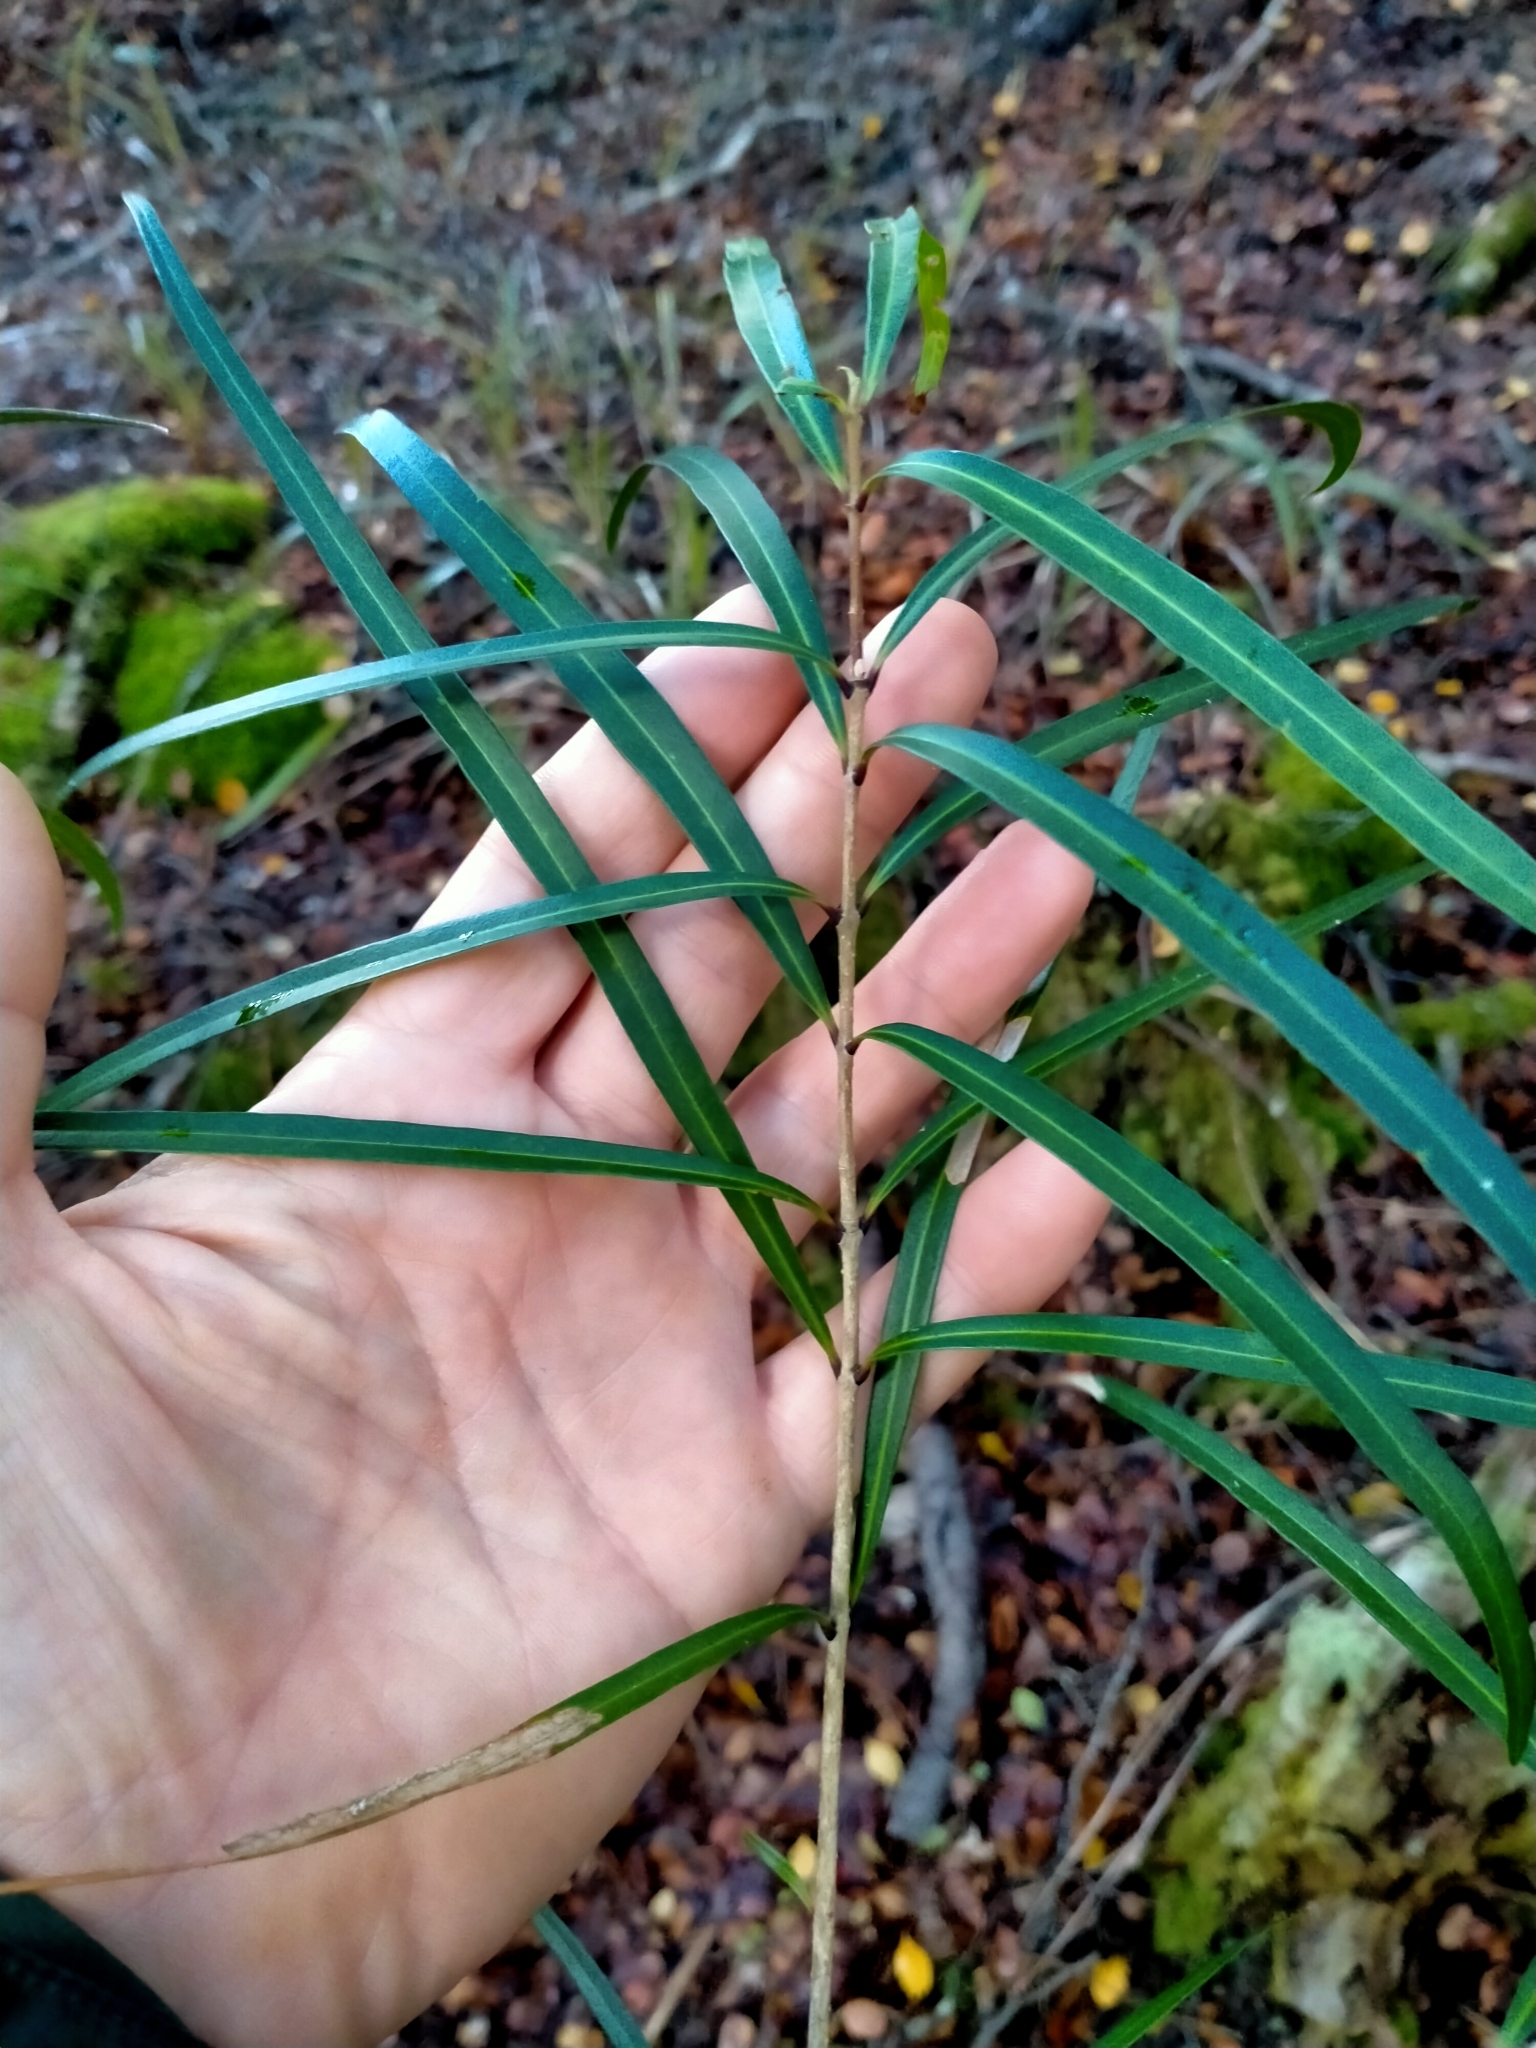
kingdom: Plantae
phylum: Tracheophyta
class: Magnoliopsida
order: Lamiales
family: Oleaceae
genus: Nestegis
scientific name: Nestegis lanceolata
